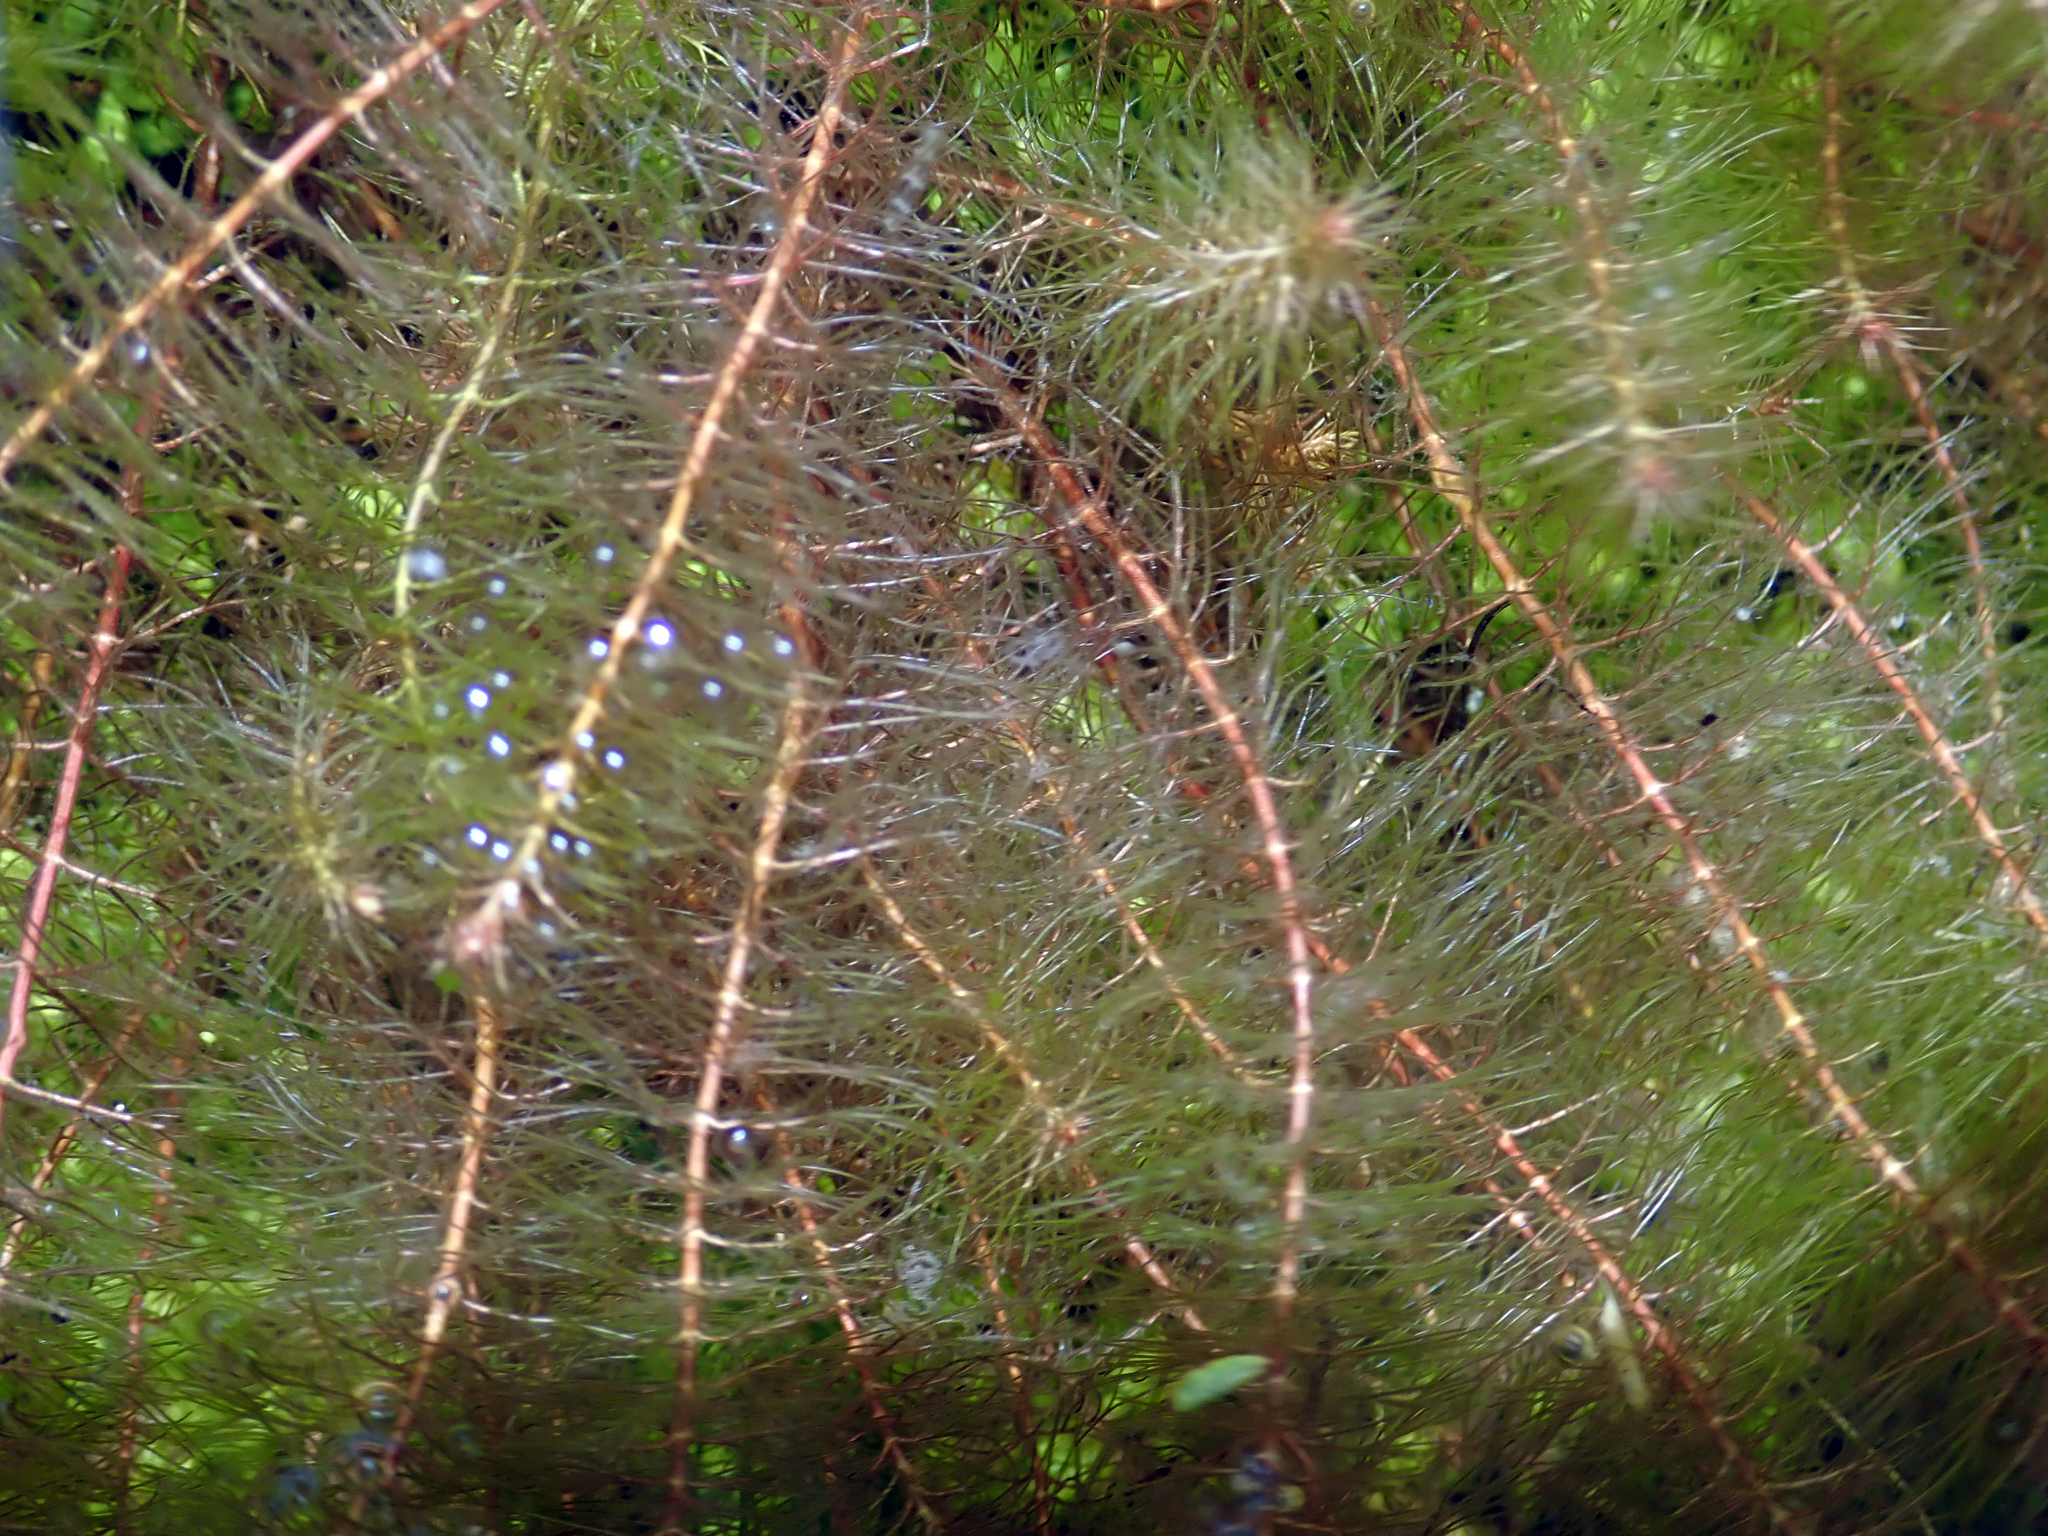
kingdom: Plantae
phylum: Tracheophyta
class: Magnoliopsida
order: Saxifragales
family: Haloragaceae
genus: Myriophyllum
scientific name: Myriophyllum propinquum
